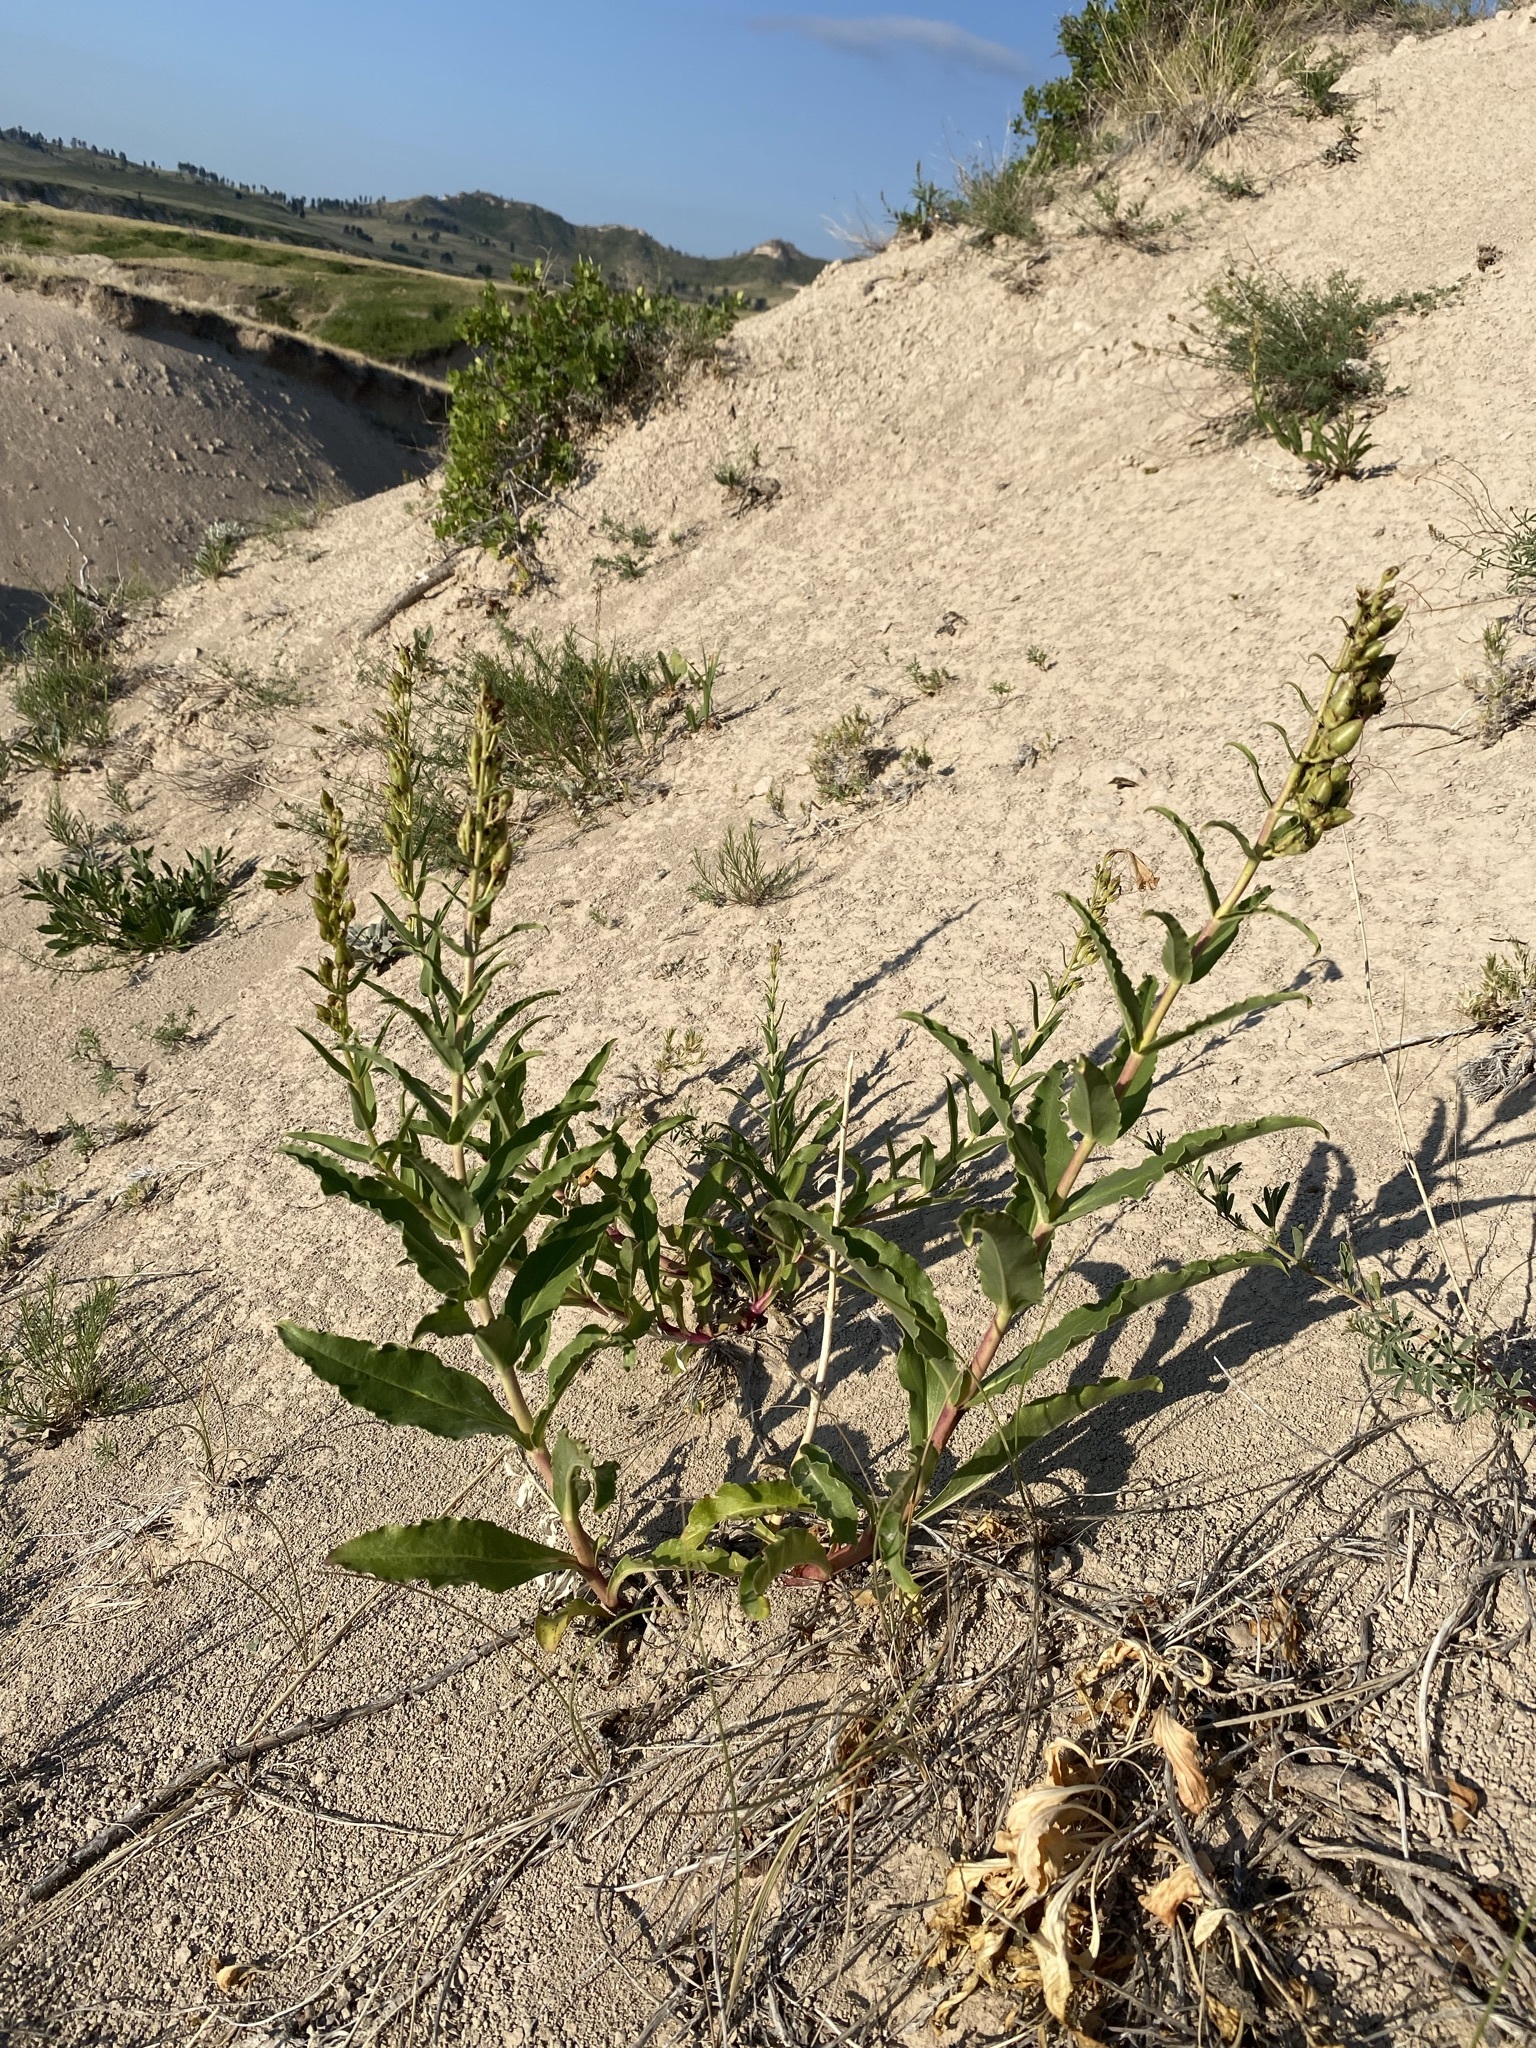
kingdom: Plantae
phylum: Tracheophyta
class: Magnoliopsida
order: Lamiales
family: Plantaginaceae
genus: Penstemon
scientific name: Penstemon glaber
